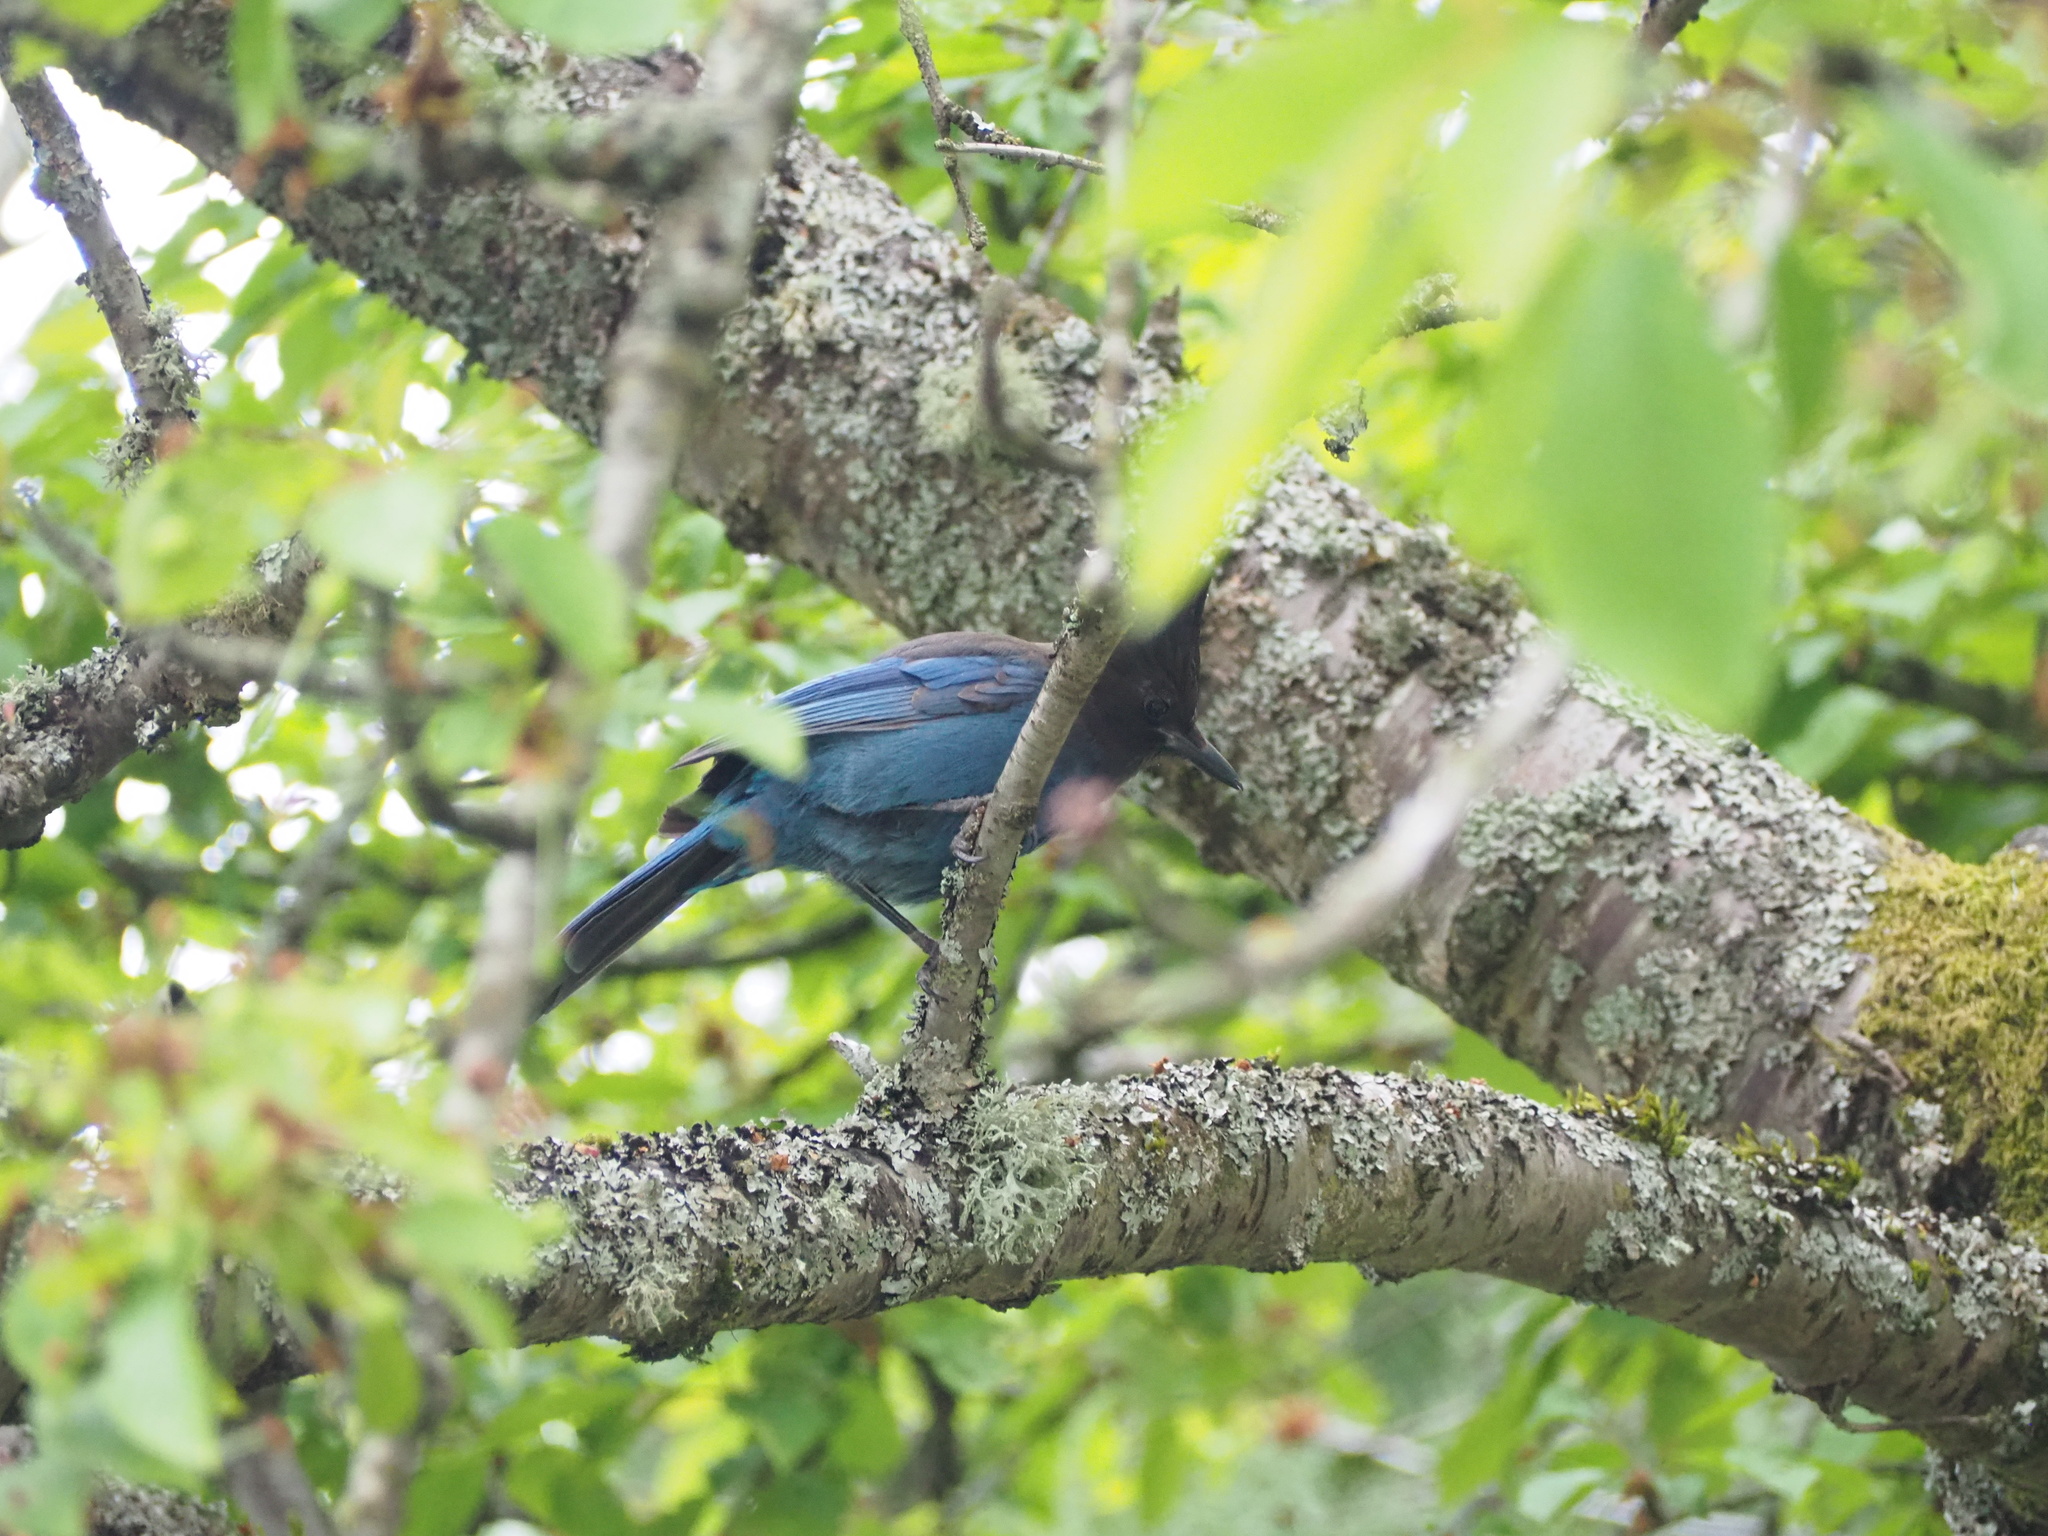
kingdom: Animalia
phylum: Chordata
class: Aves
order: Passeriformes
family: Corvidae
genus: Cyanocitta
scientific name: Cyanocitta stelleri
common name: Steller's jay
